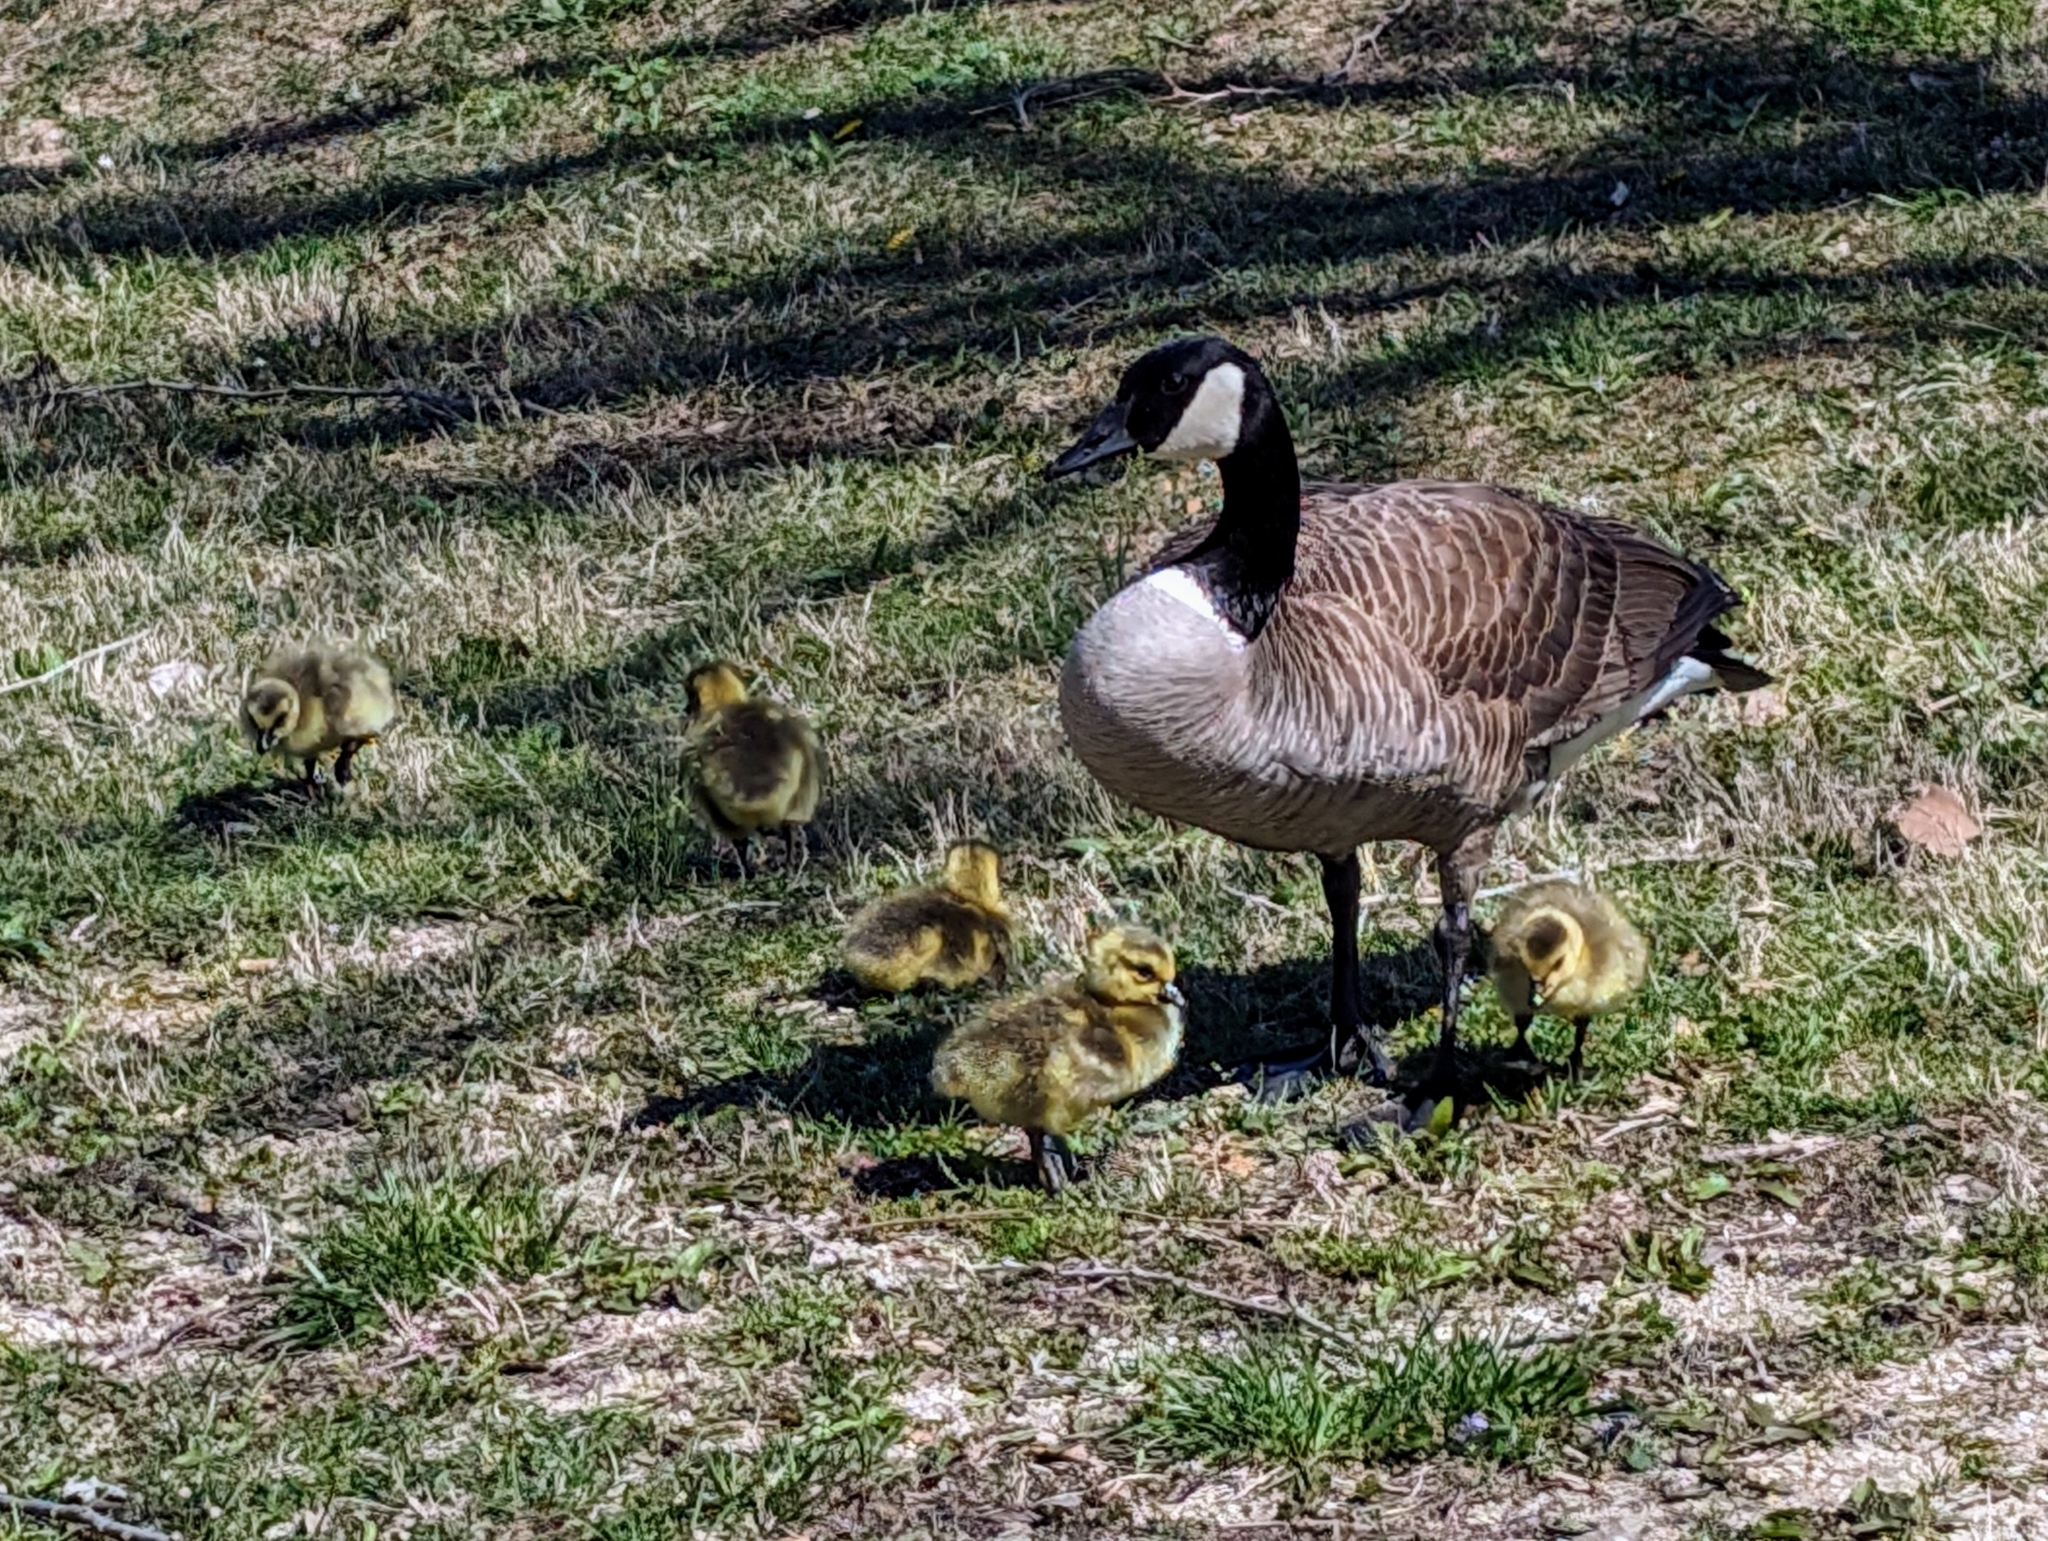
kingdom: Animalia
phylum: Chordata
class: Aves
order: Anseriformes
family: Anatidae
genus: Branta
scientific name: Branta canadensis
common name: Canada goose
